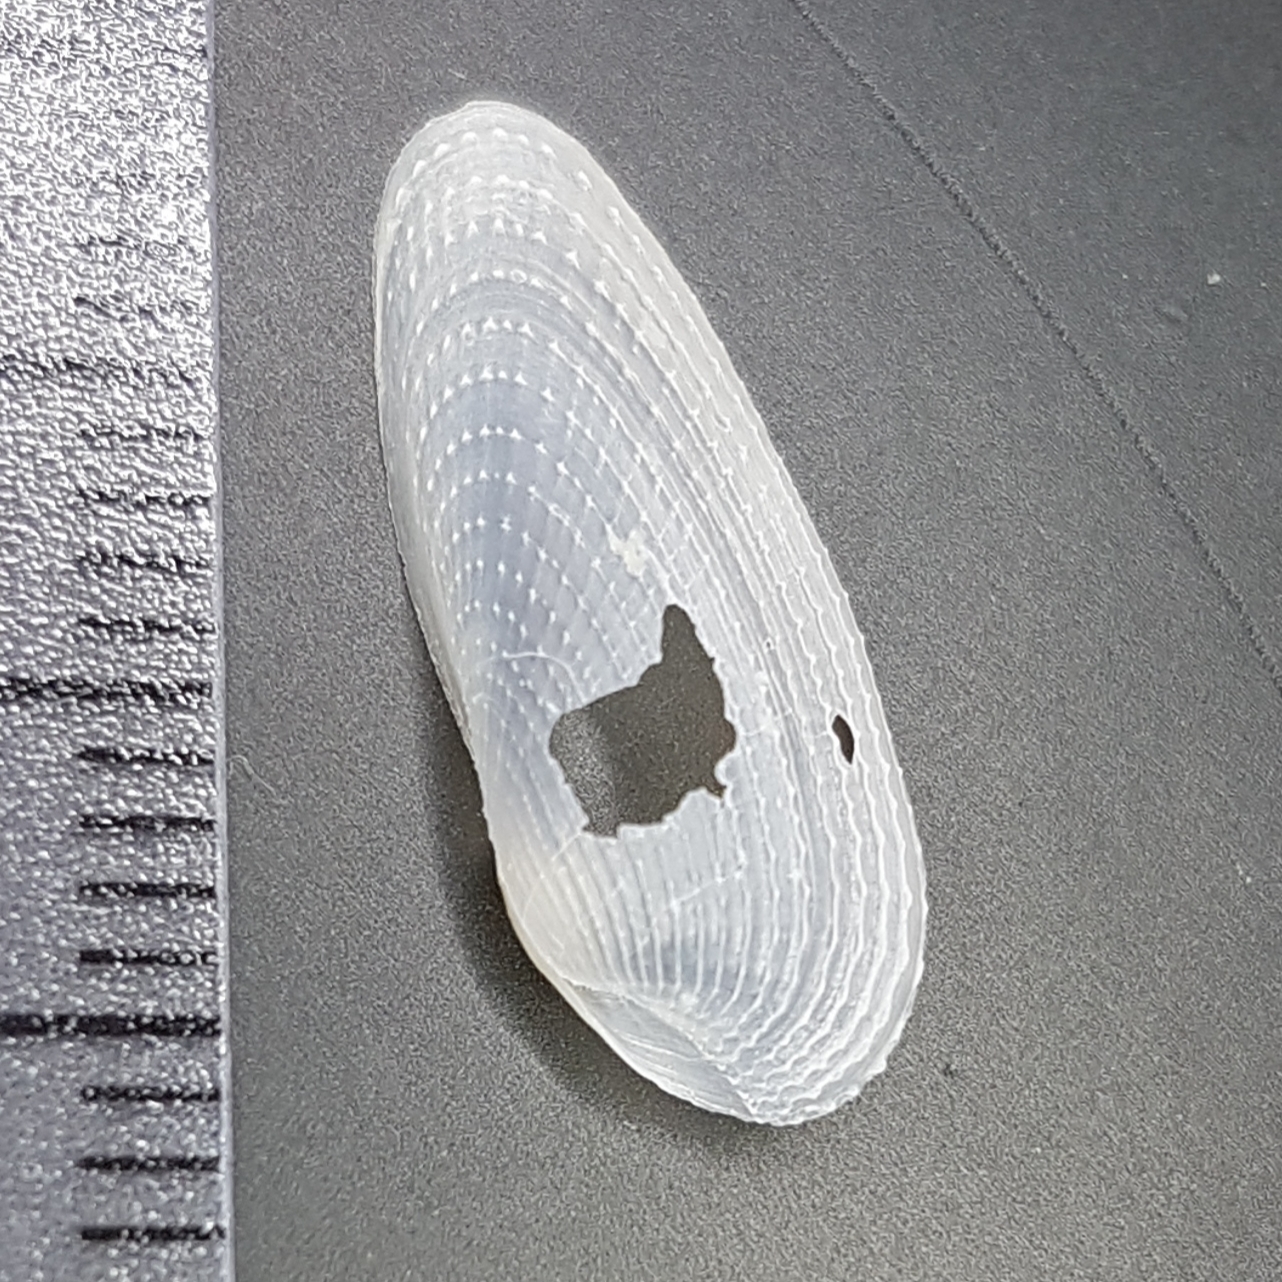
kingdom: Animalia
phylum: Mollusca
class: Bivalvia
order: Myida
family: Pholadidae
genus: Barnea
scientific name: Barnea candida
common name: White piddock
